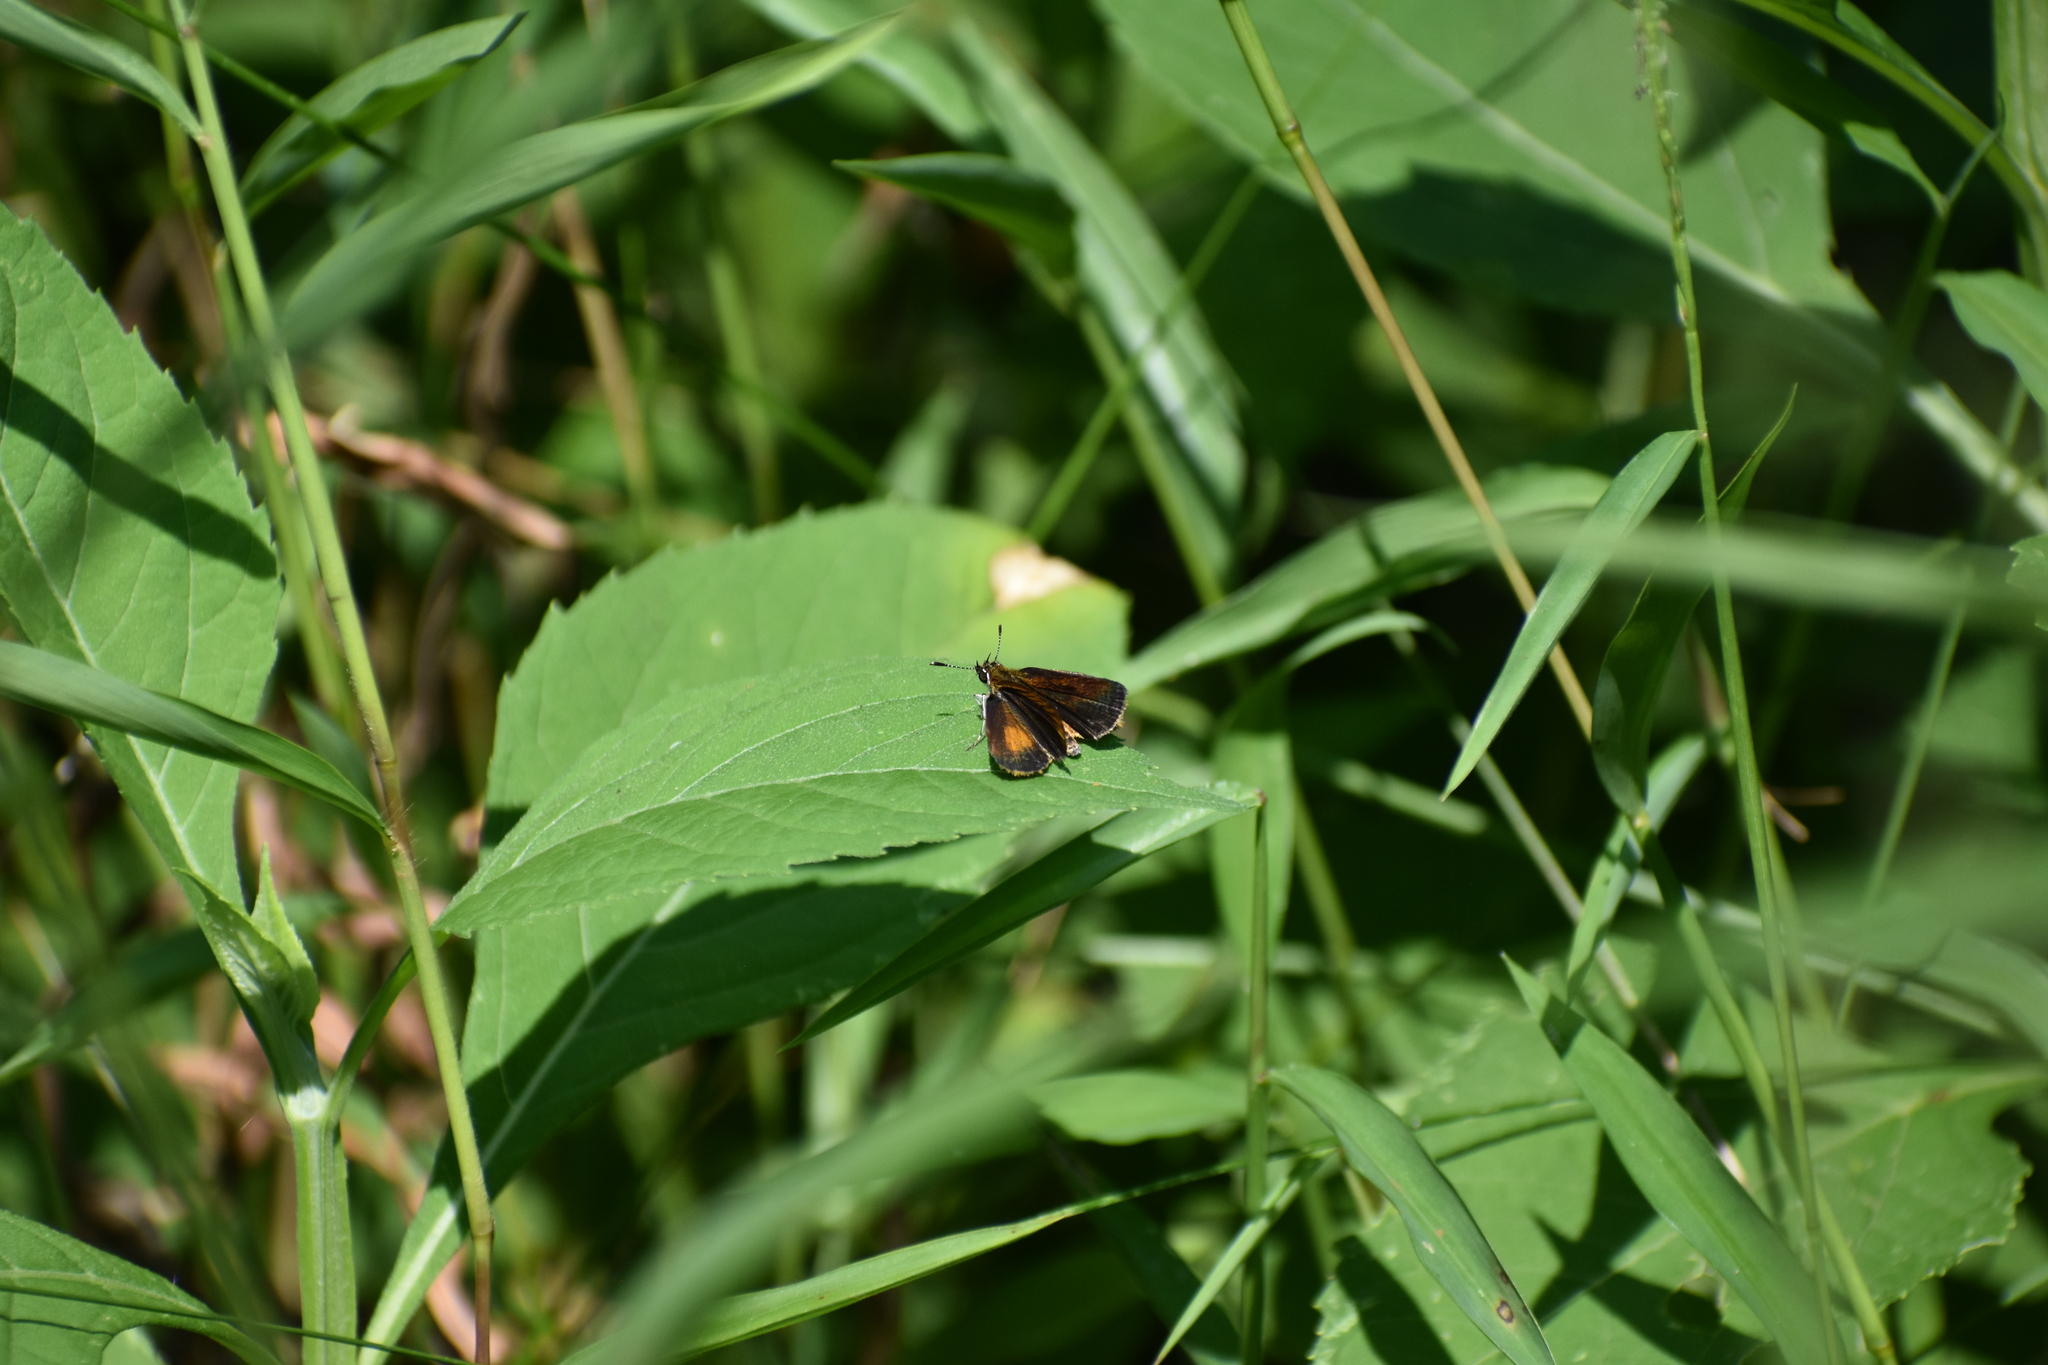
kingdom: Animalia
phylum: Arthropoda
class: Insecta
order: Lepidoptera
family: Hesperiidae
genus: Ancyloxypha
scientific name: Ancyloxypha numitor
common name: Least skipper
